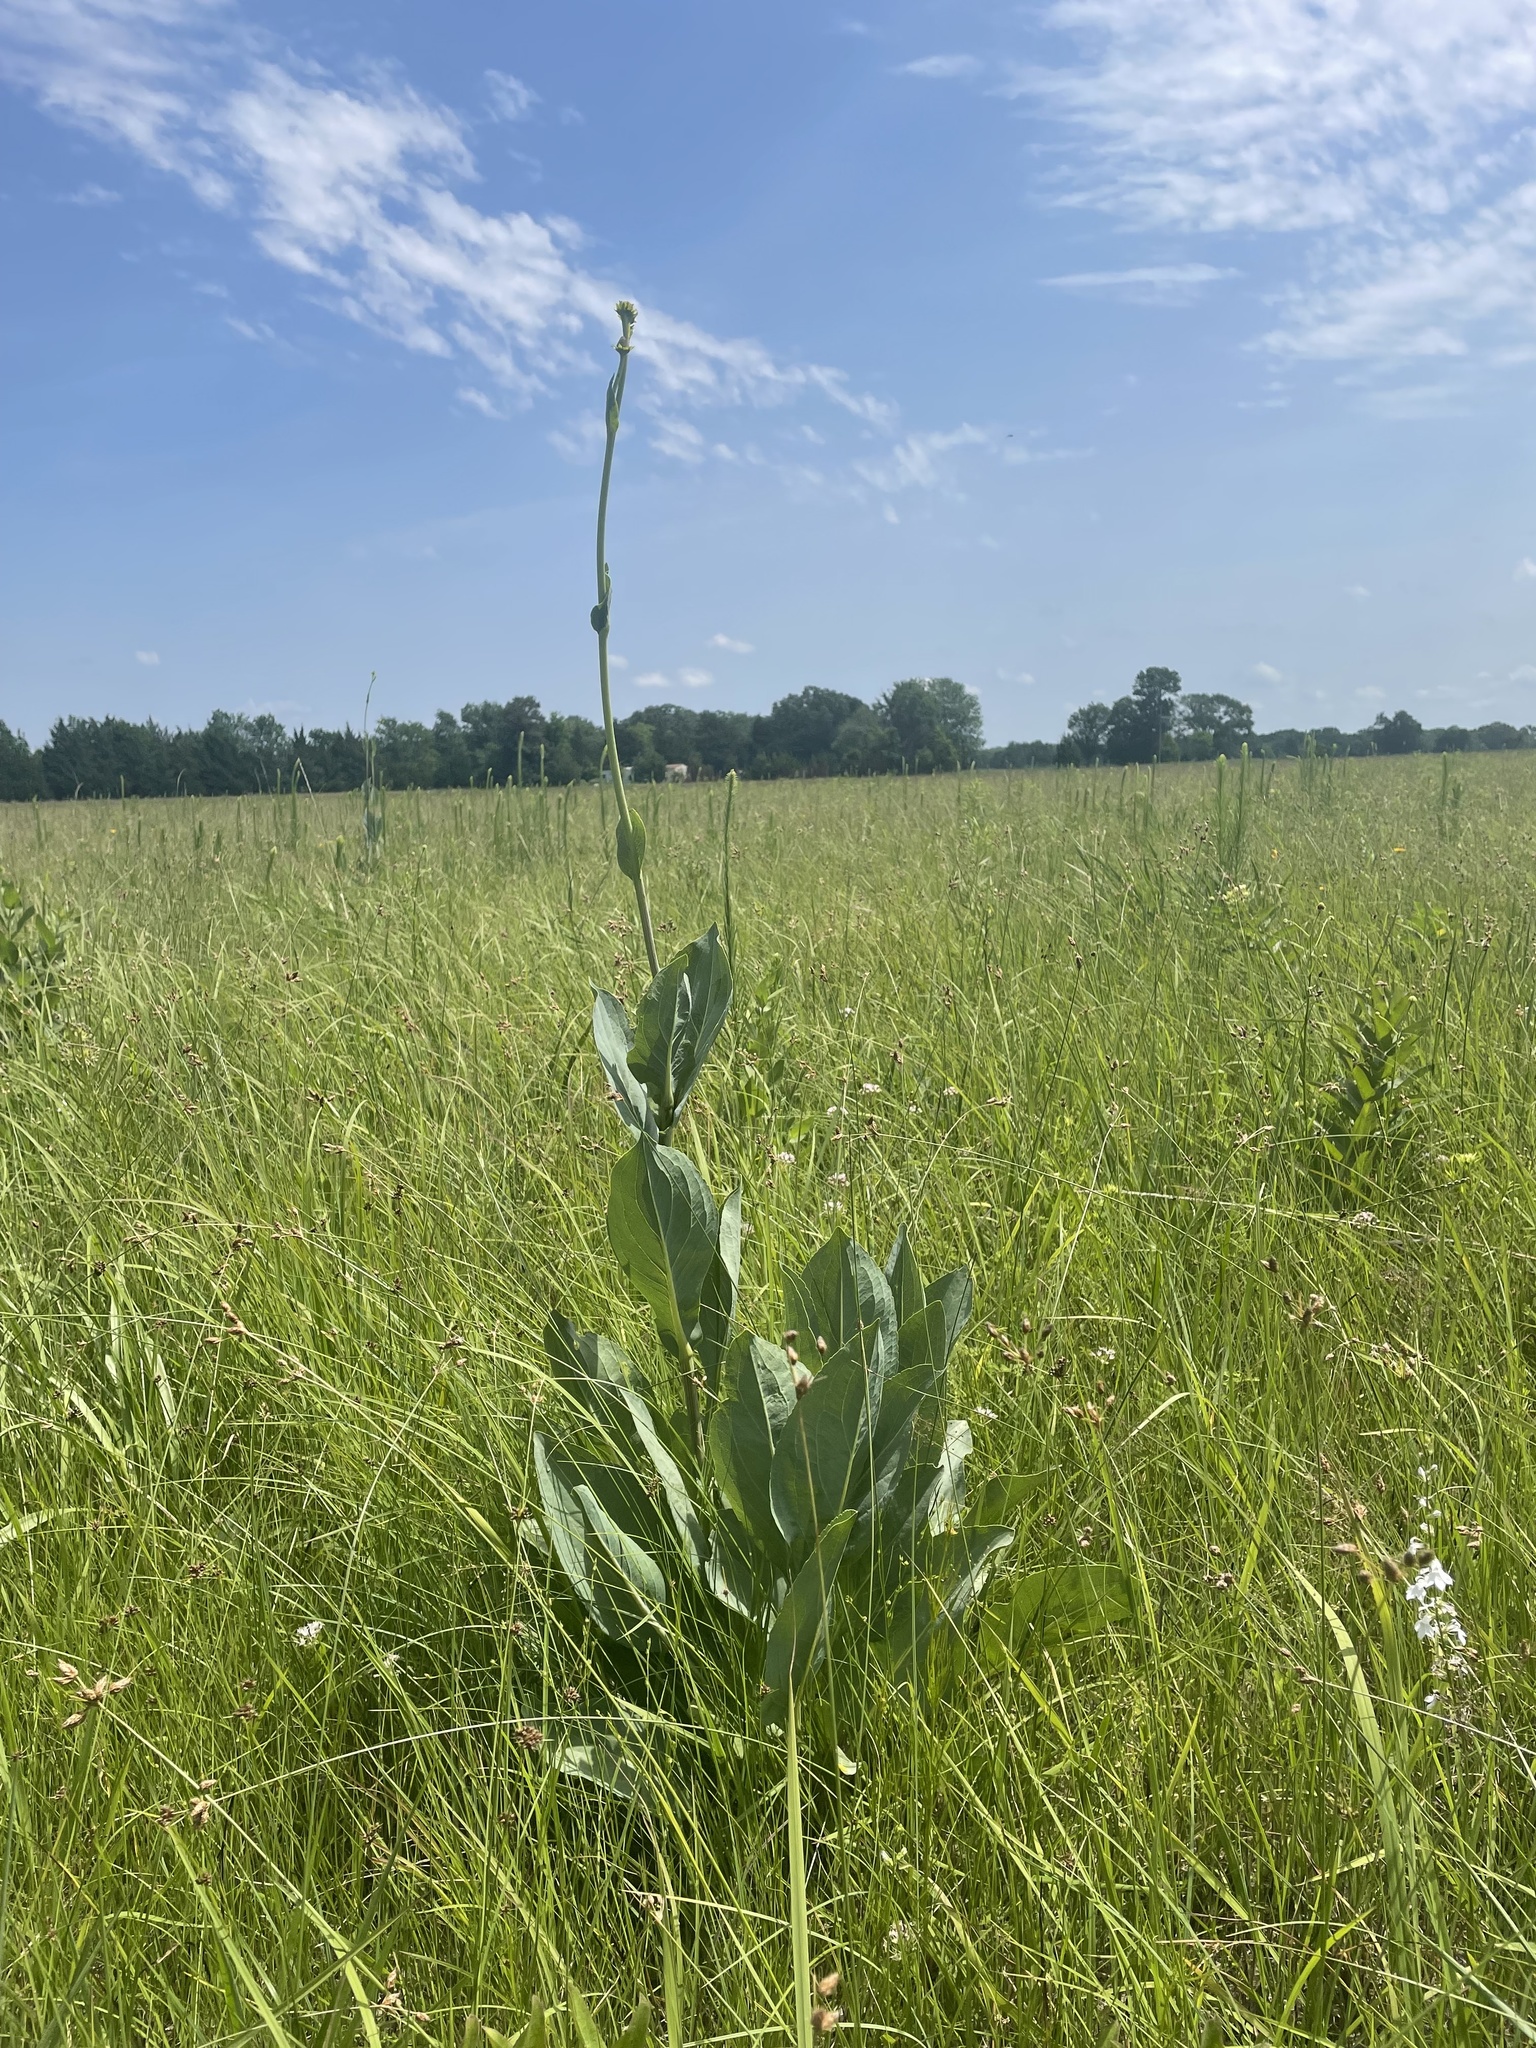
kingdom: Plantae
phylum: Tracheophyta
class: Magnoliopsida
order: Asterales
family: Asteraceae
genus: Rudbeckia
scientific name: Rudbeckia maxima
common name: Cabbage coneflower
